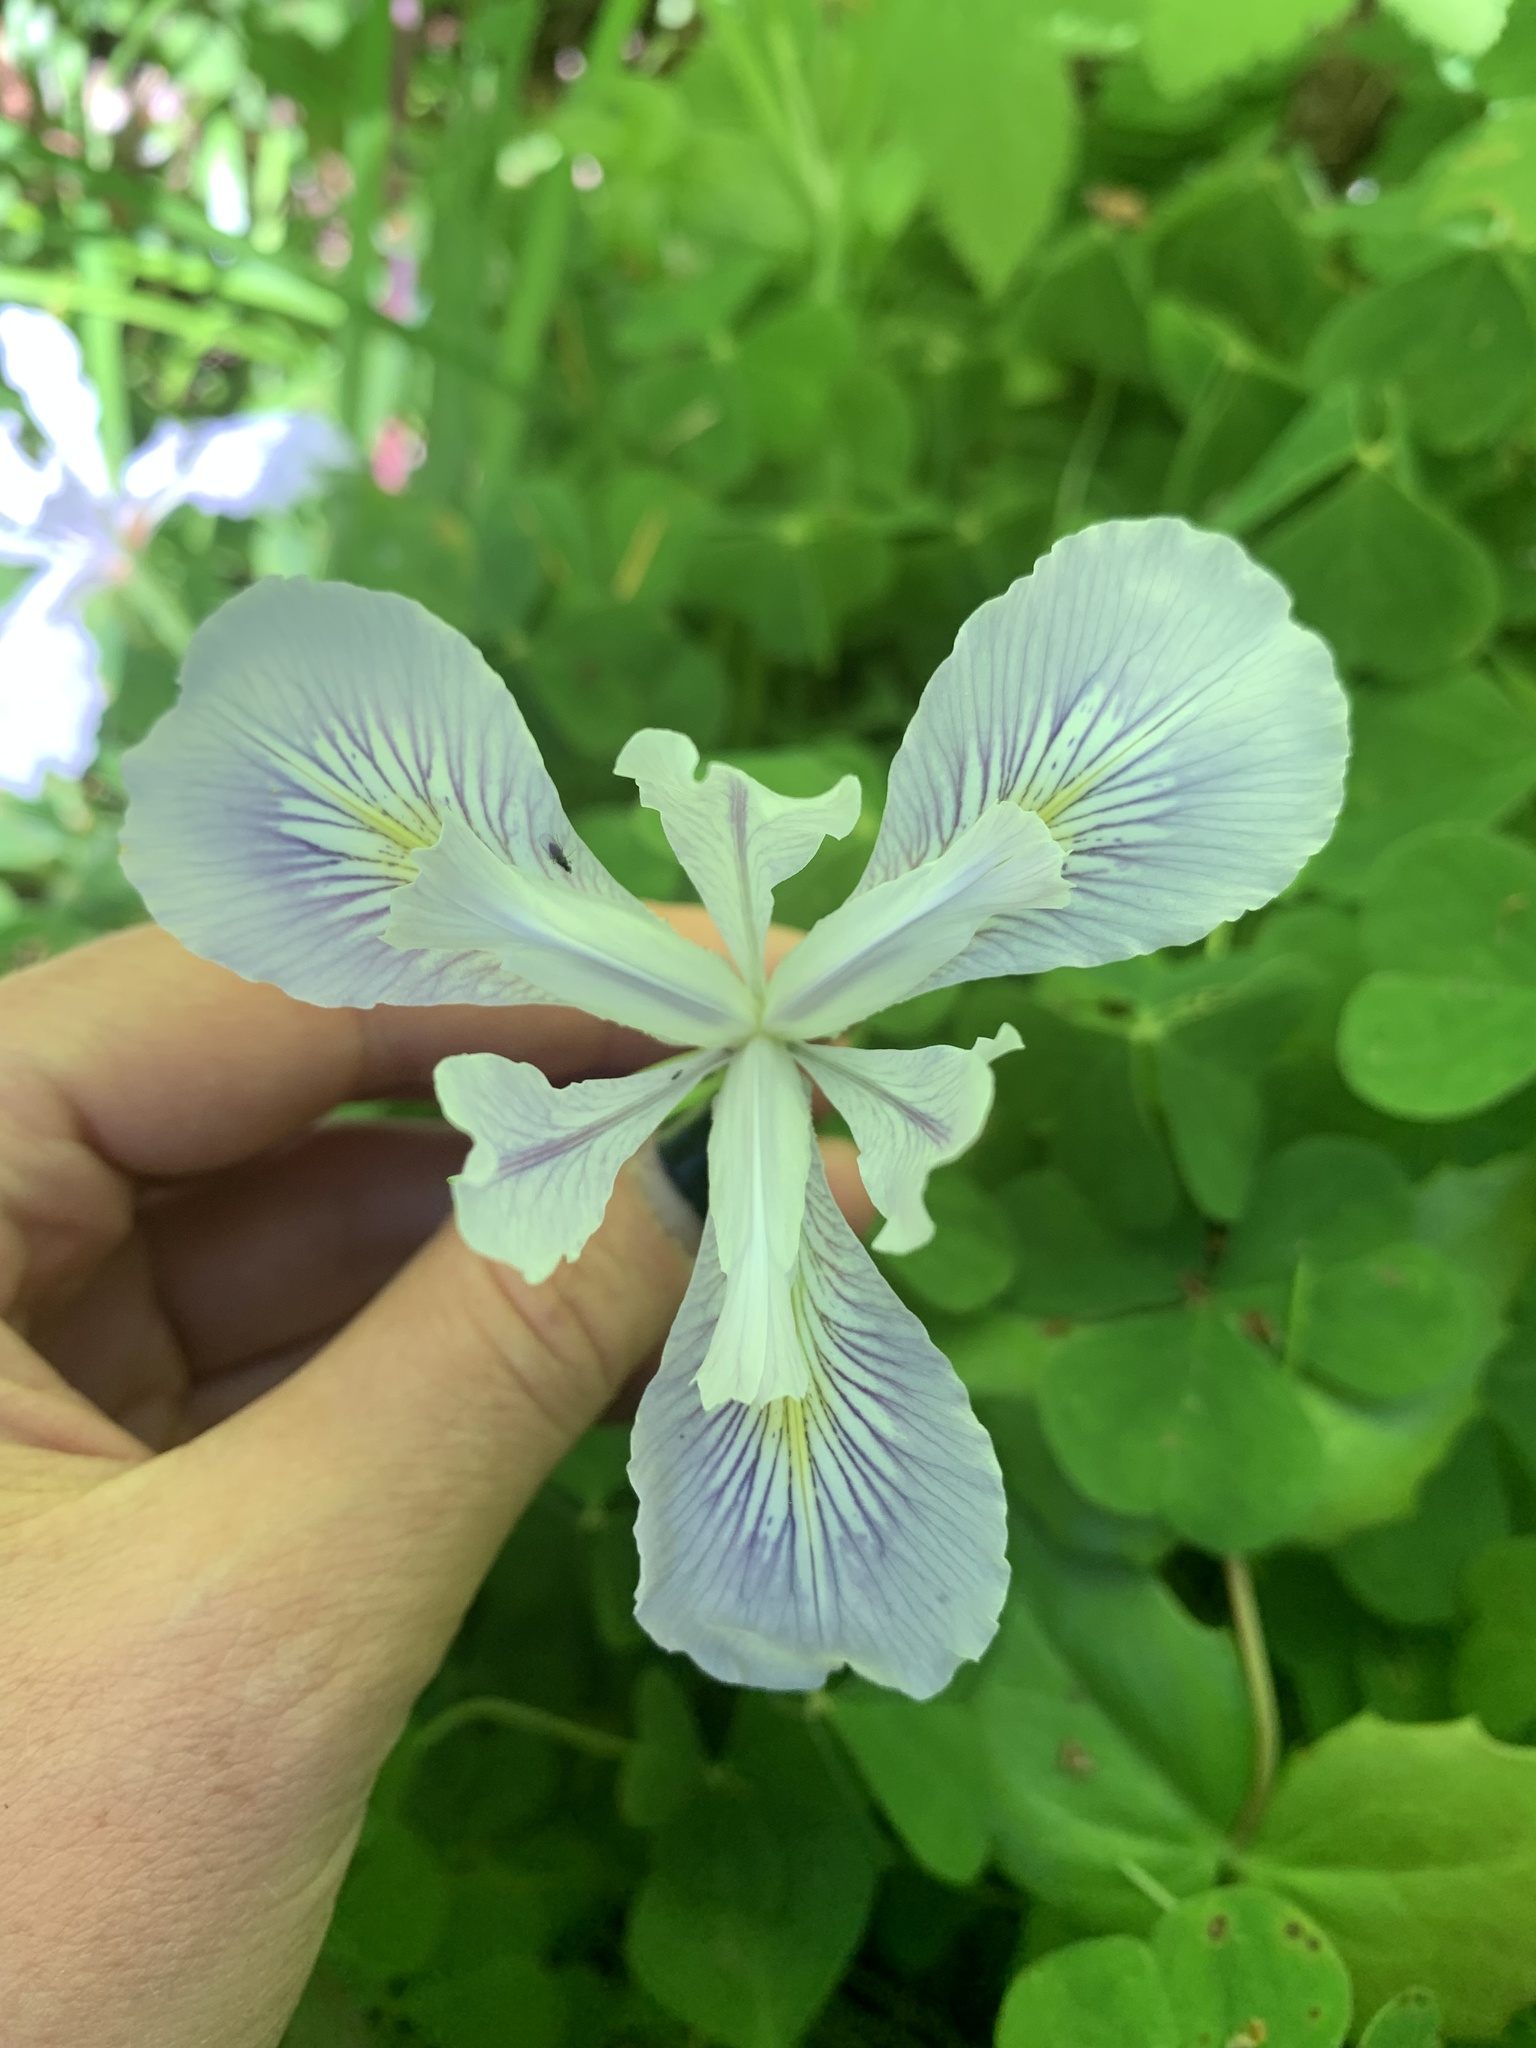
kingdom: Plantae
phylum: Tracheophyta
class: Liliopsida
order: Asparagales
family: Iridaceae
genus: Iris
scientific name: Iris tenax
